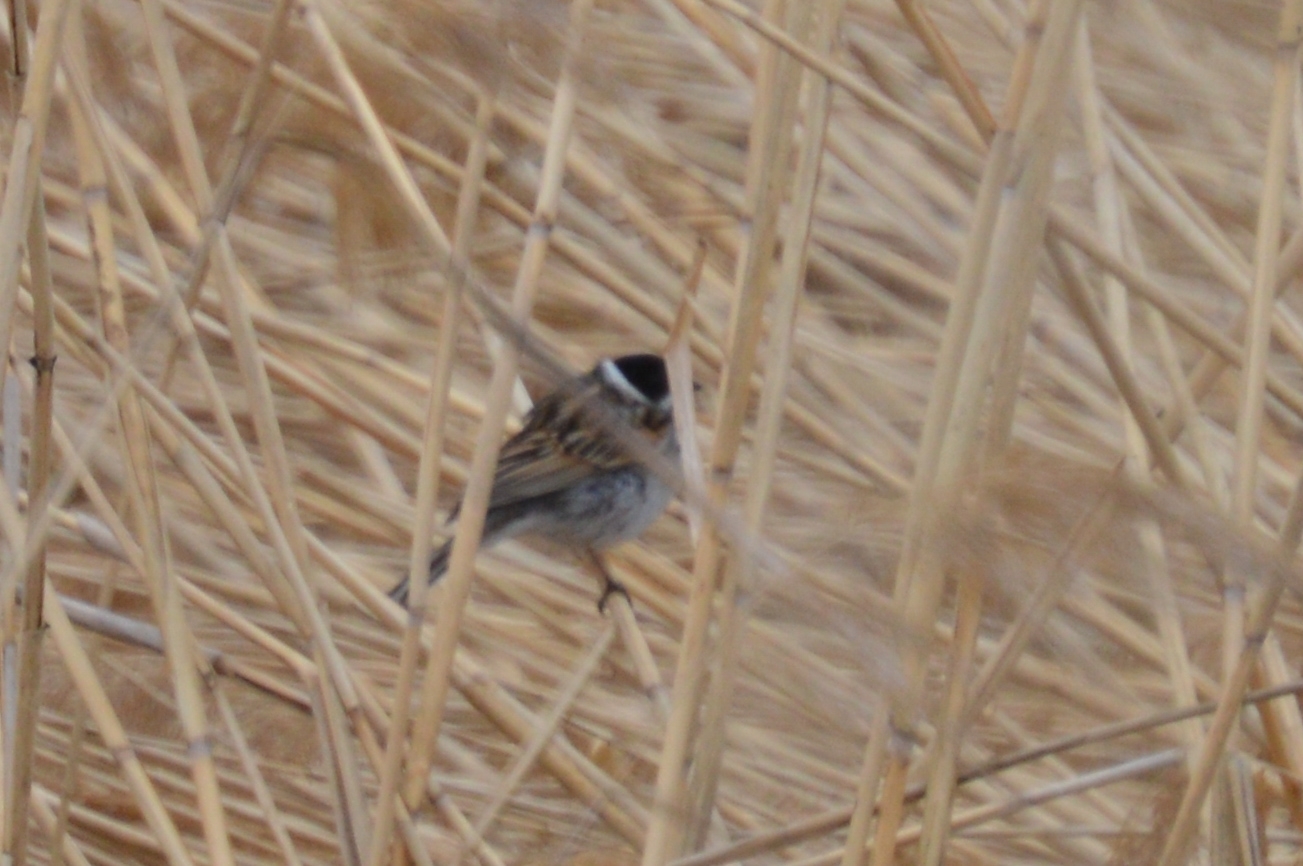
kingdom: Animalia
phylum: Chordata
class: Aves
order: Passeriformes
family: Emberizidae
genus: Emberiza
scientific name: Emberiza schoeniclus
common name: Reed bunting
